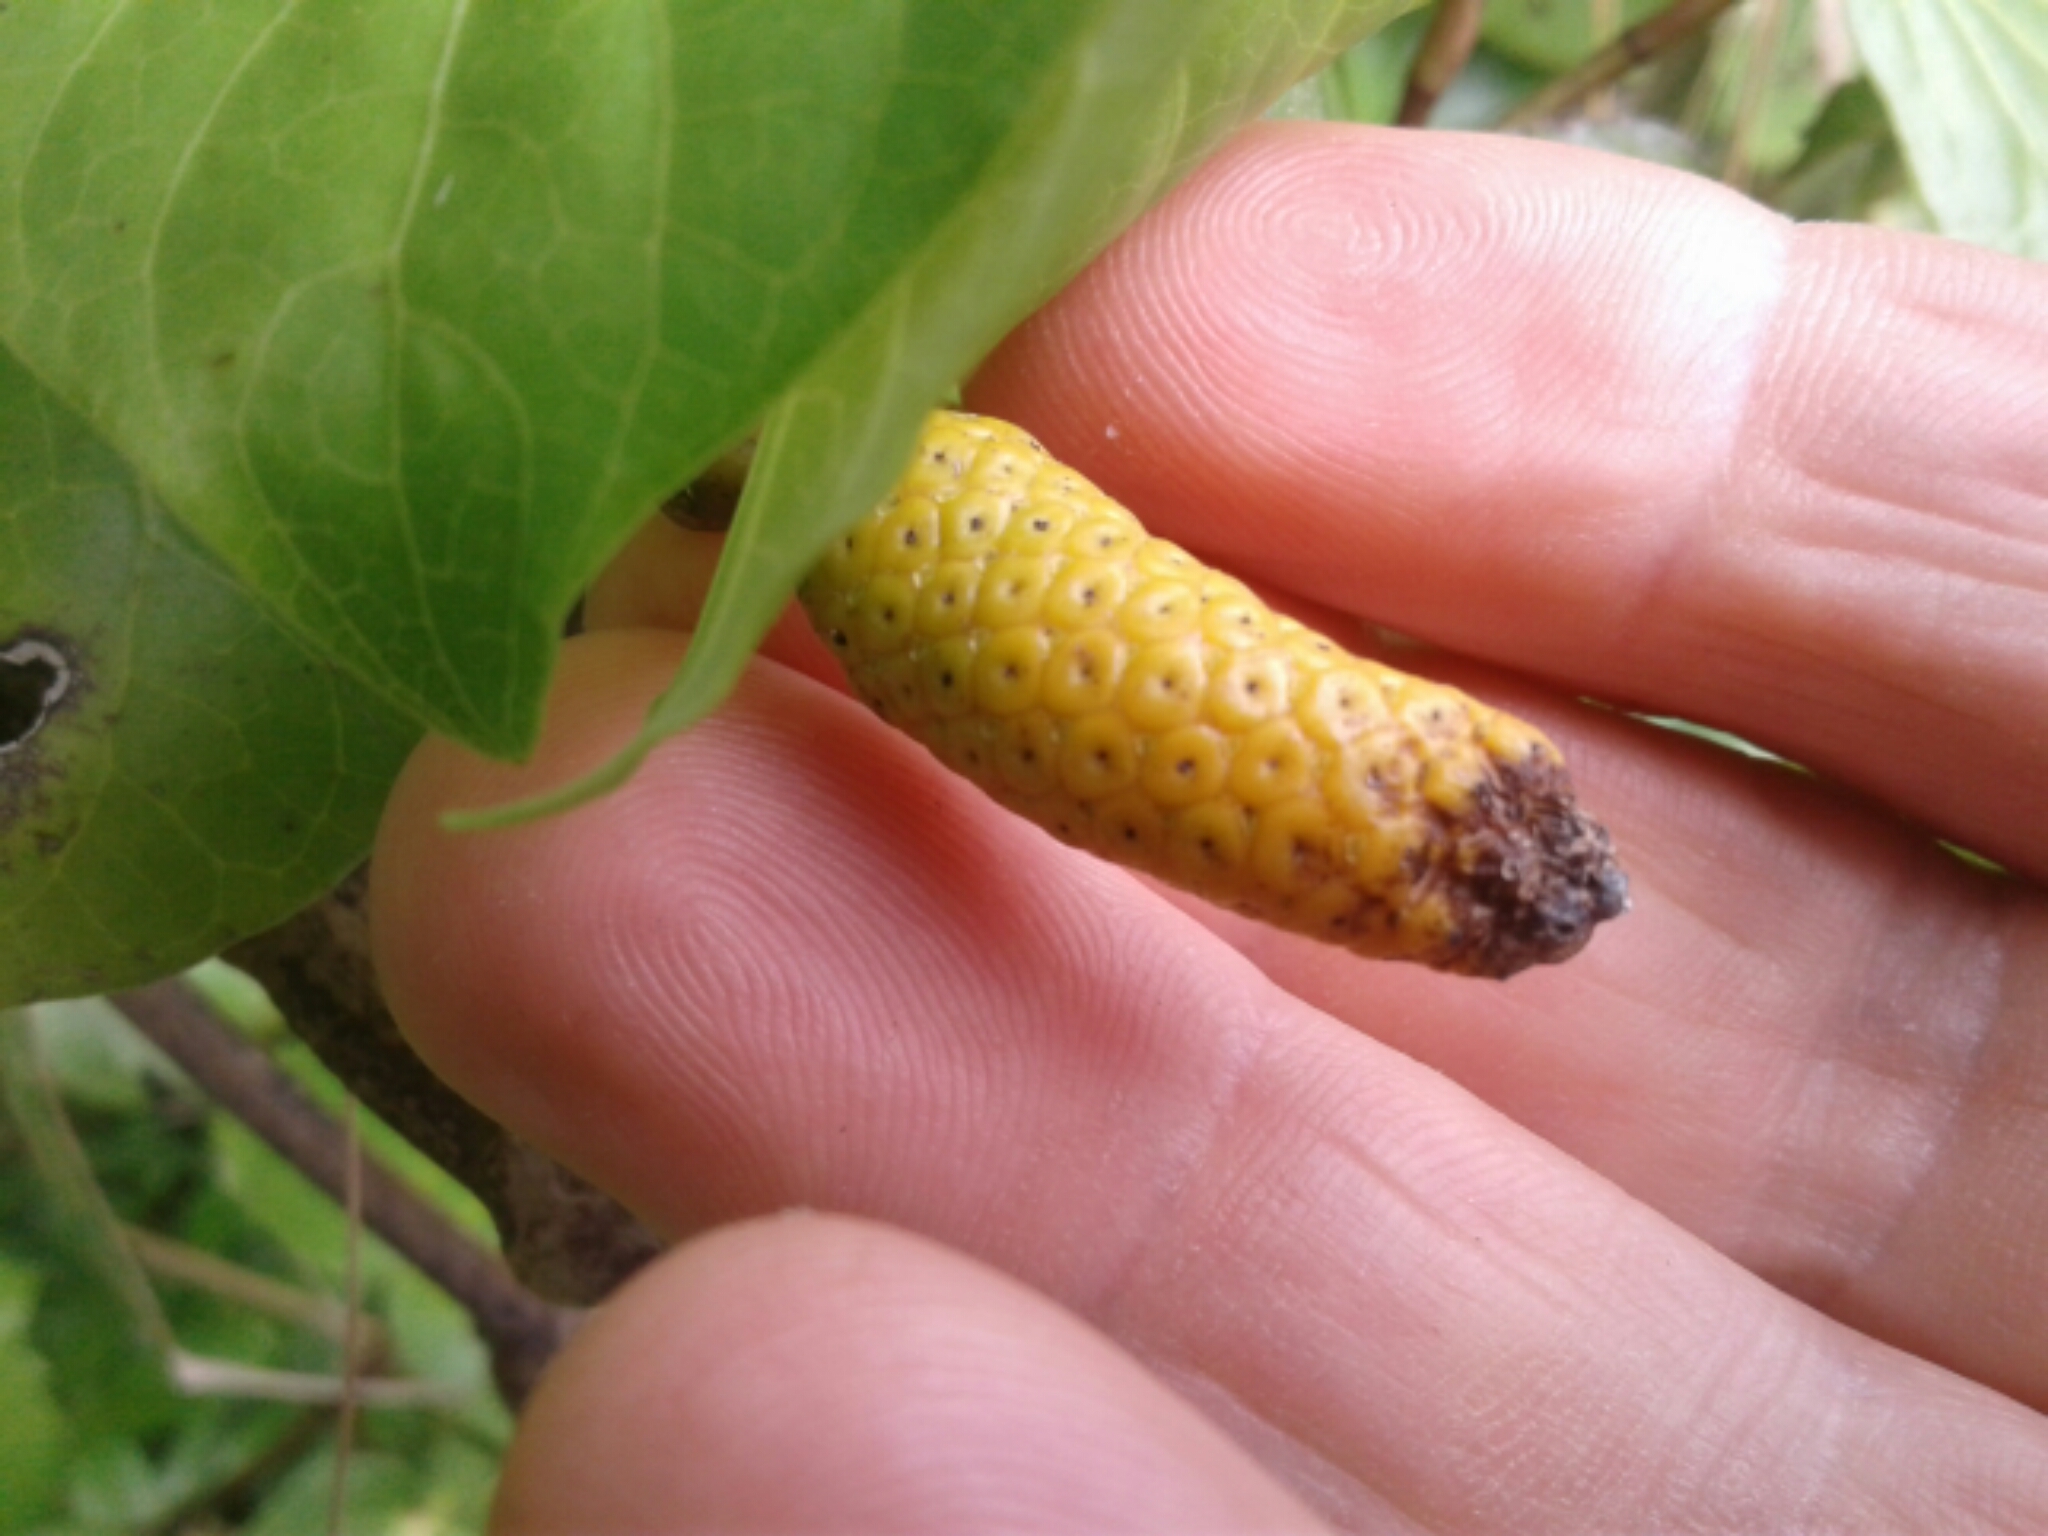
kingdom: Plantae
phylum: Tracheophyta
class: Magnoliopsida
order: Piperales
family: Piperaceae
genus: Macropiper
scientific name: Macropiper excelsum
